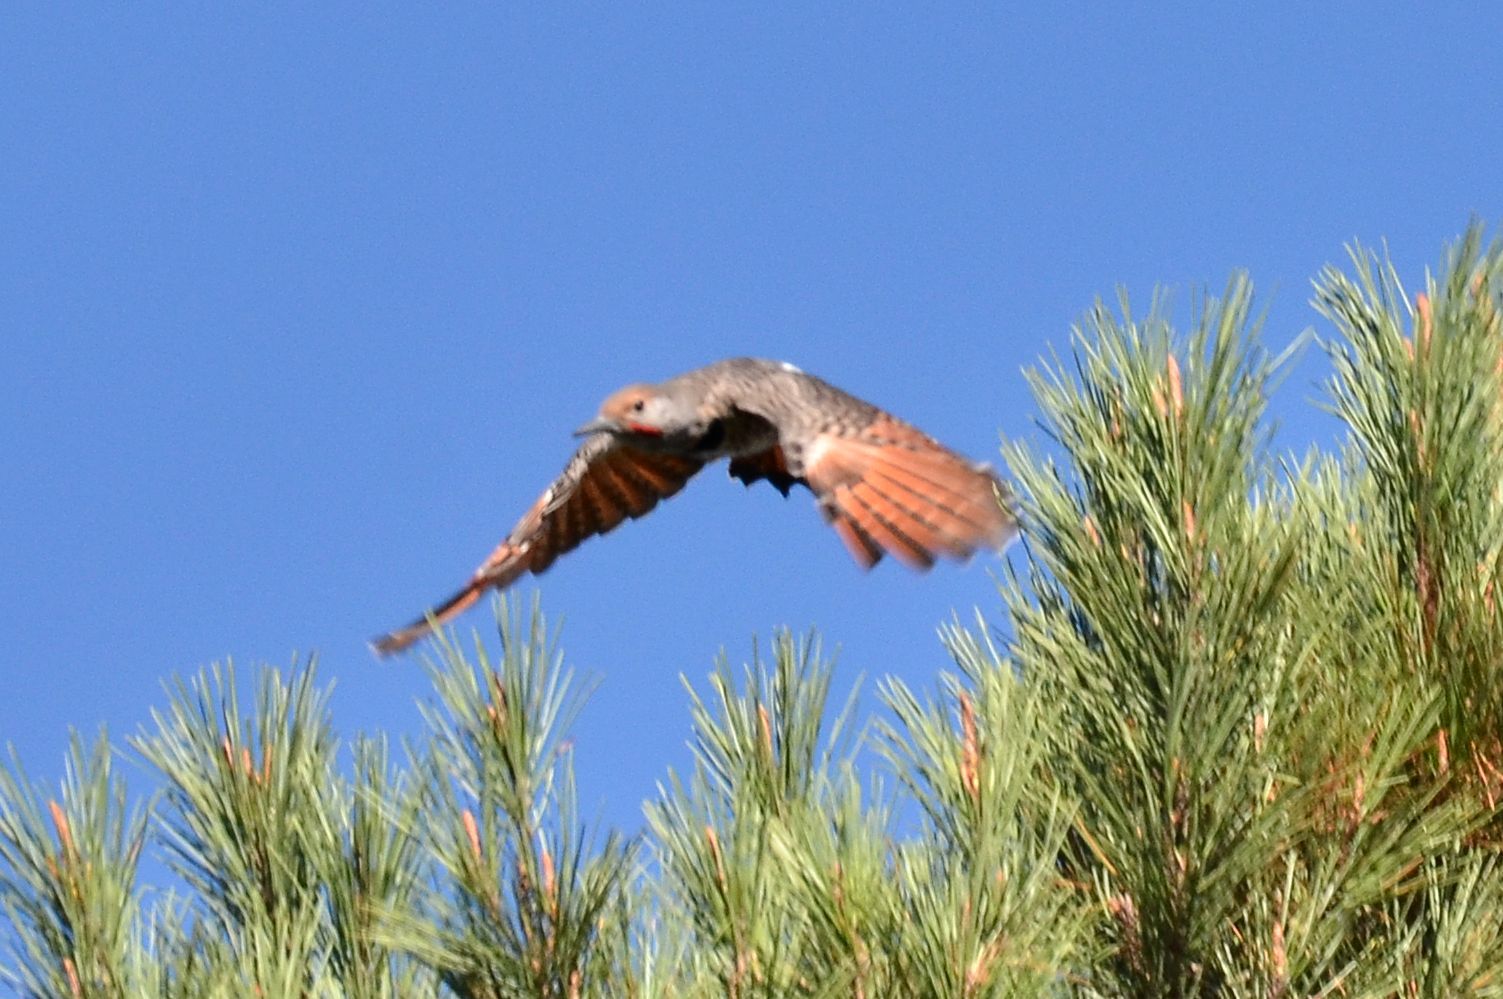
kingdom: Animalia
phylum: Chordata
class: Aves
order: Piciformes
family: Picidae
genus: Colaptes
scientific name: Colaptes auratus
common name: Northern flicker
